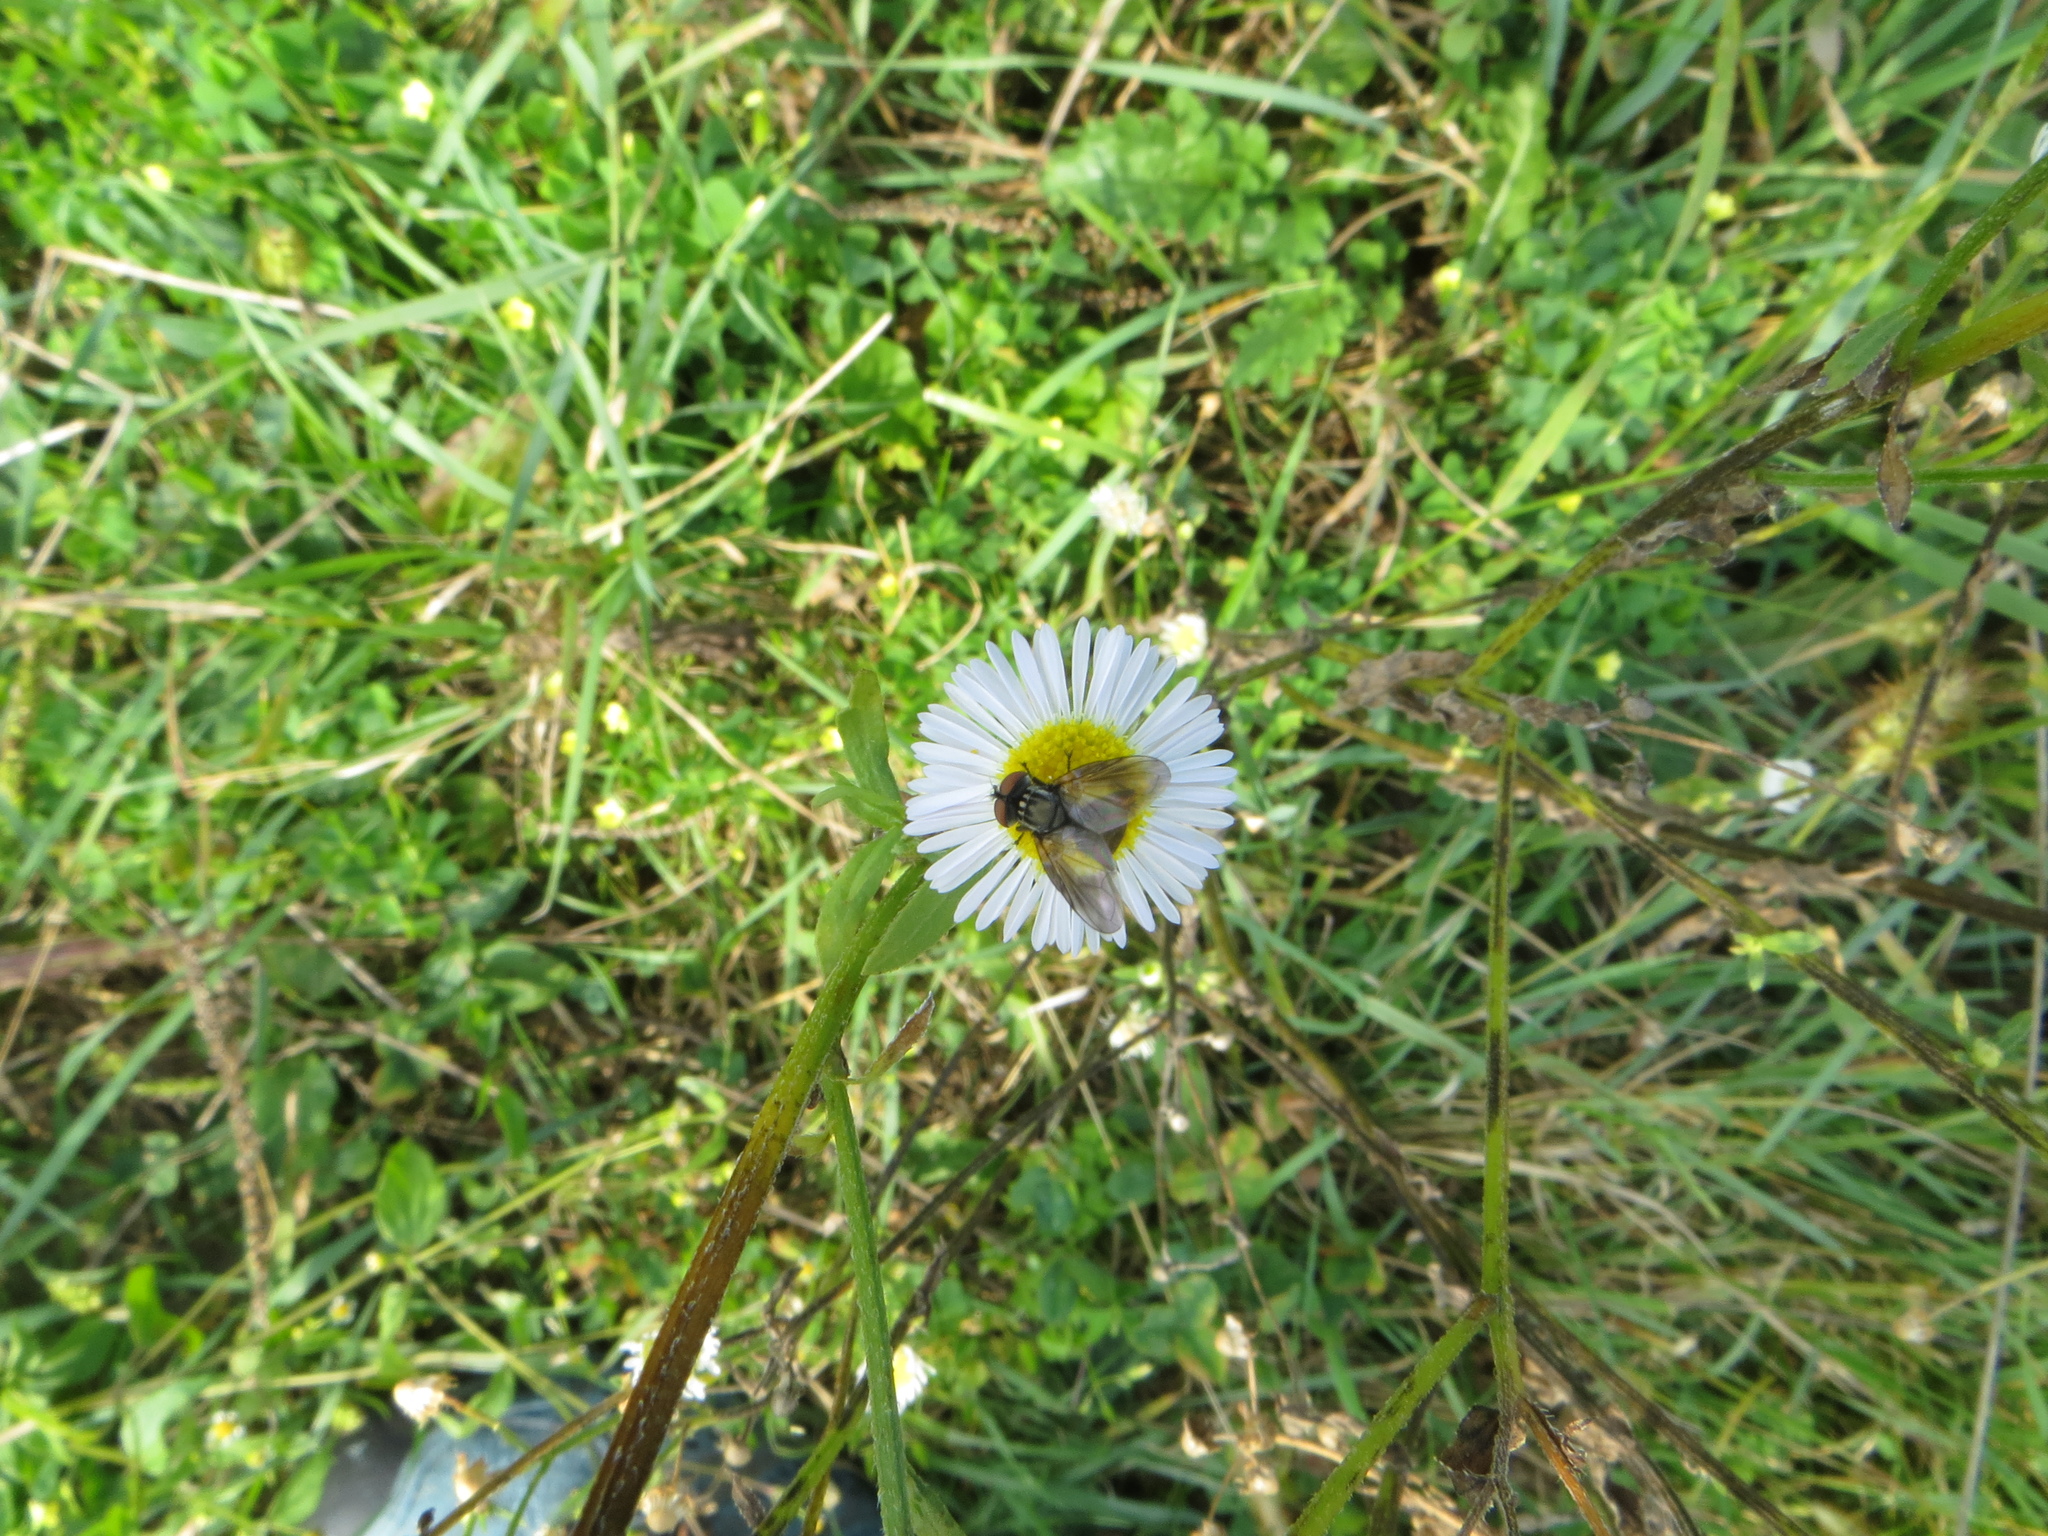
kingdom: Animalia
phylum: Arthropoda
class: Insecta
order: Diptera
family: Tachinidae
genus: Phasia
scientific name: Phasia obesa
